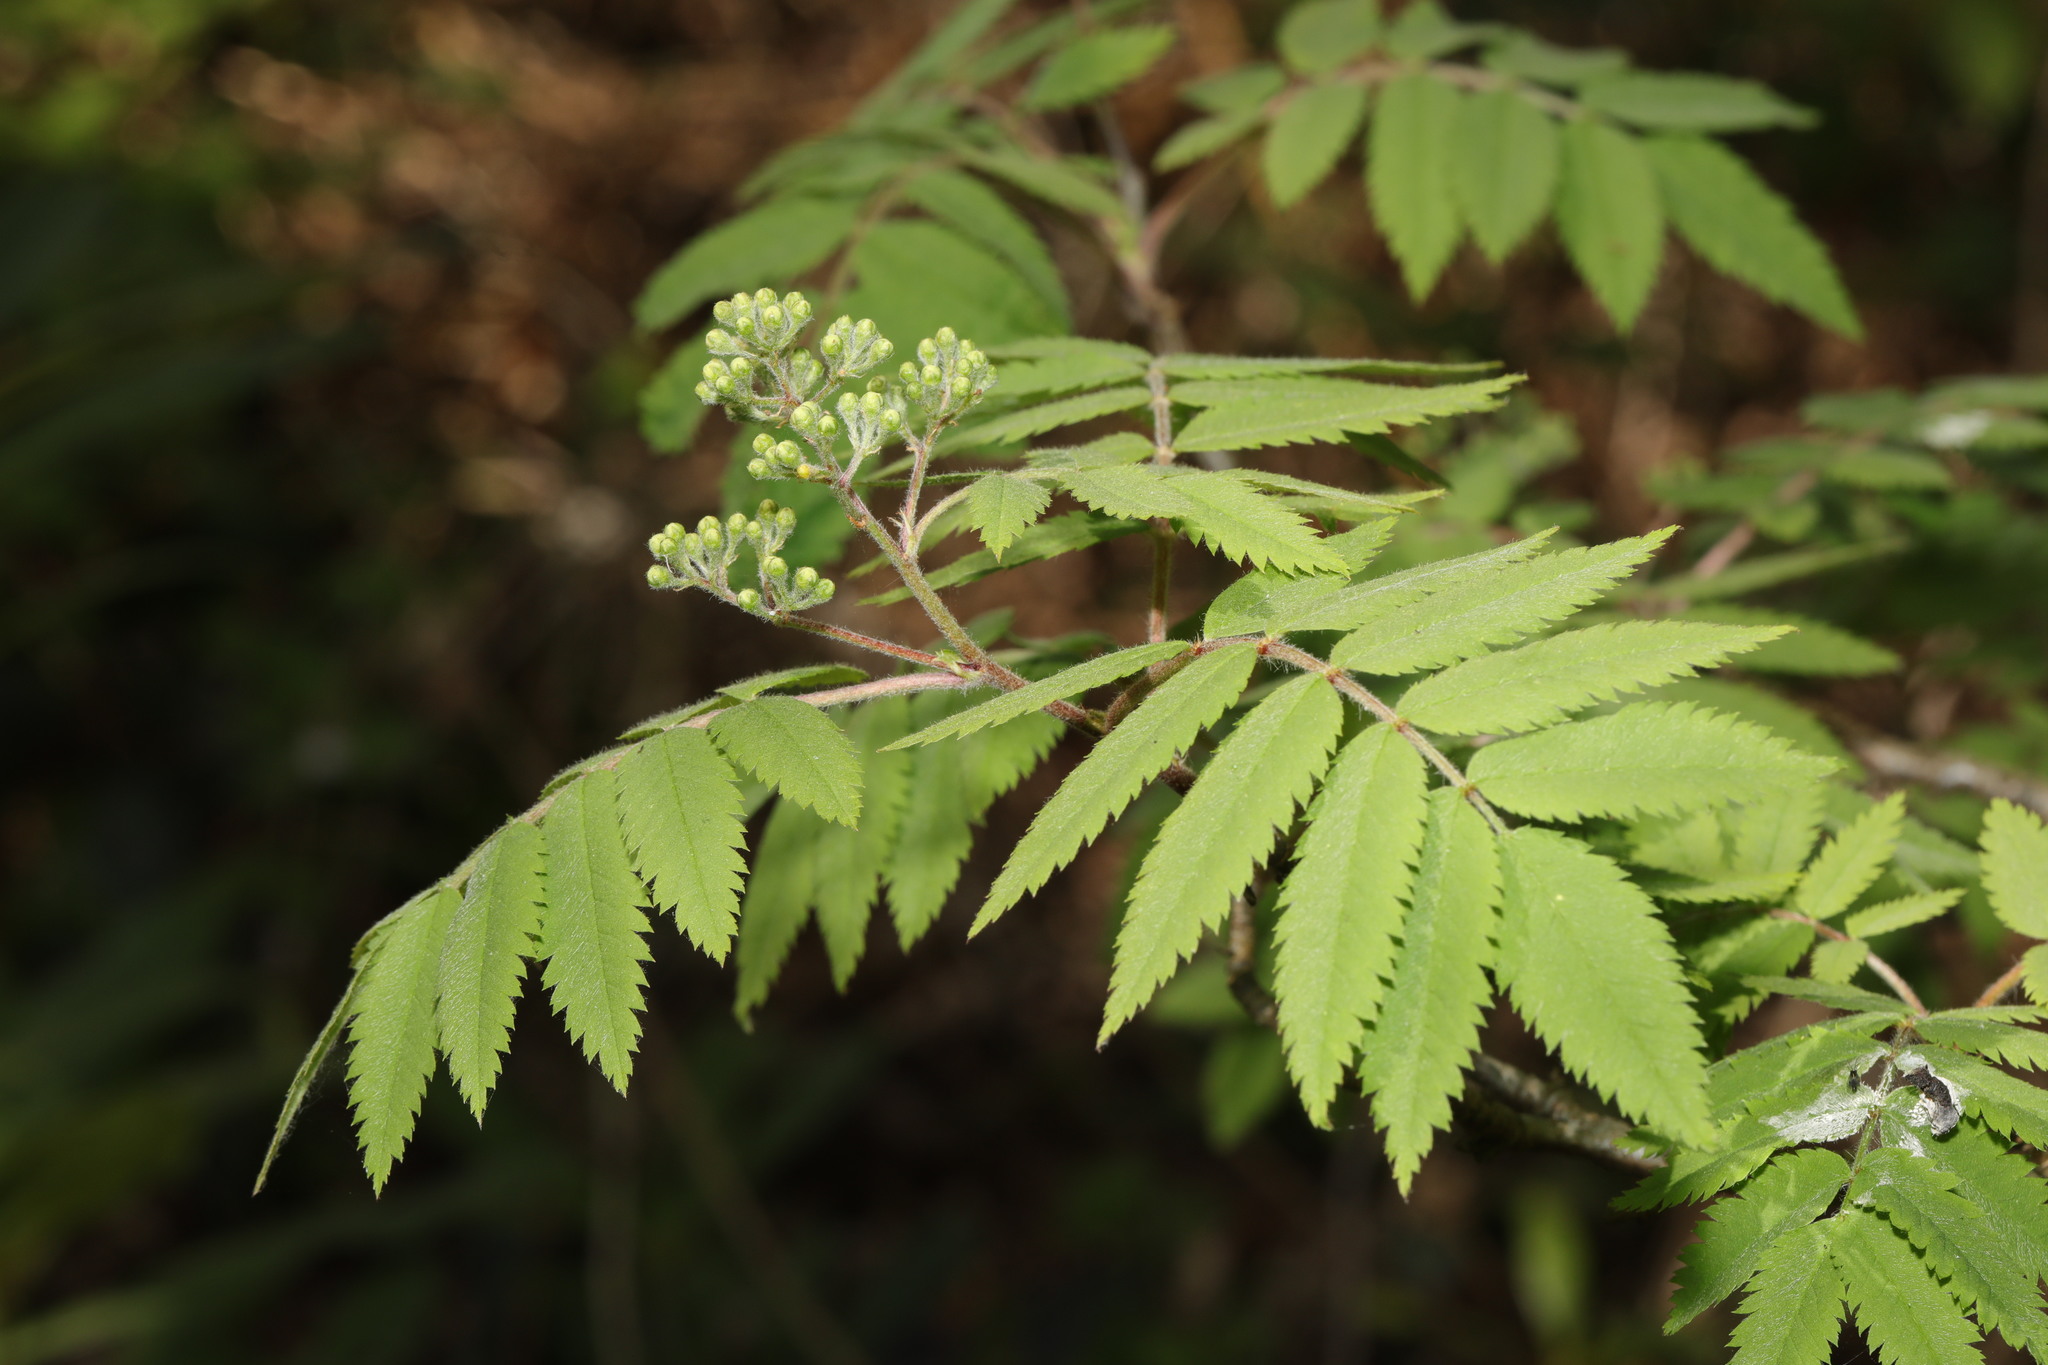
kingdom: Plantae
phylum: Tracheophyta
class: Magnoliopsida
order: Rosales
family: Rosaceae
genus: Sorbus
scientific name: Sorbus aucuparia
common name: Rowan
